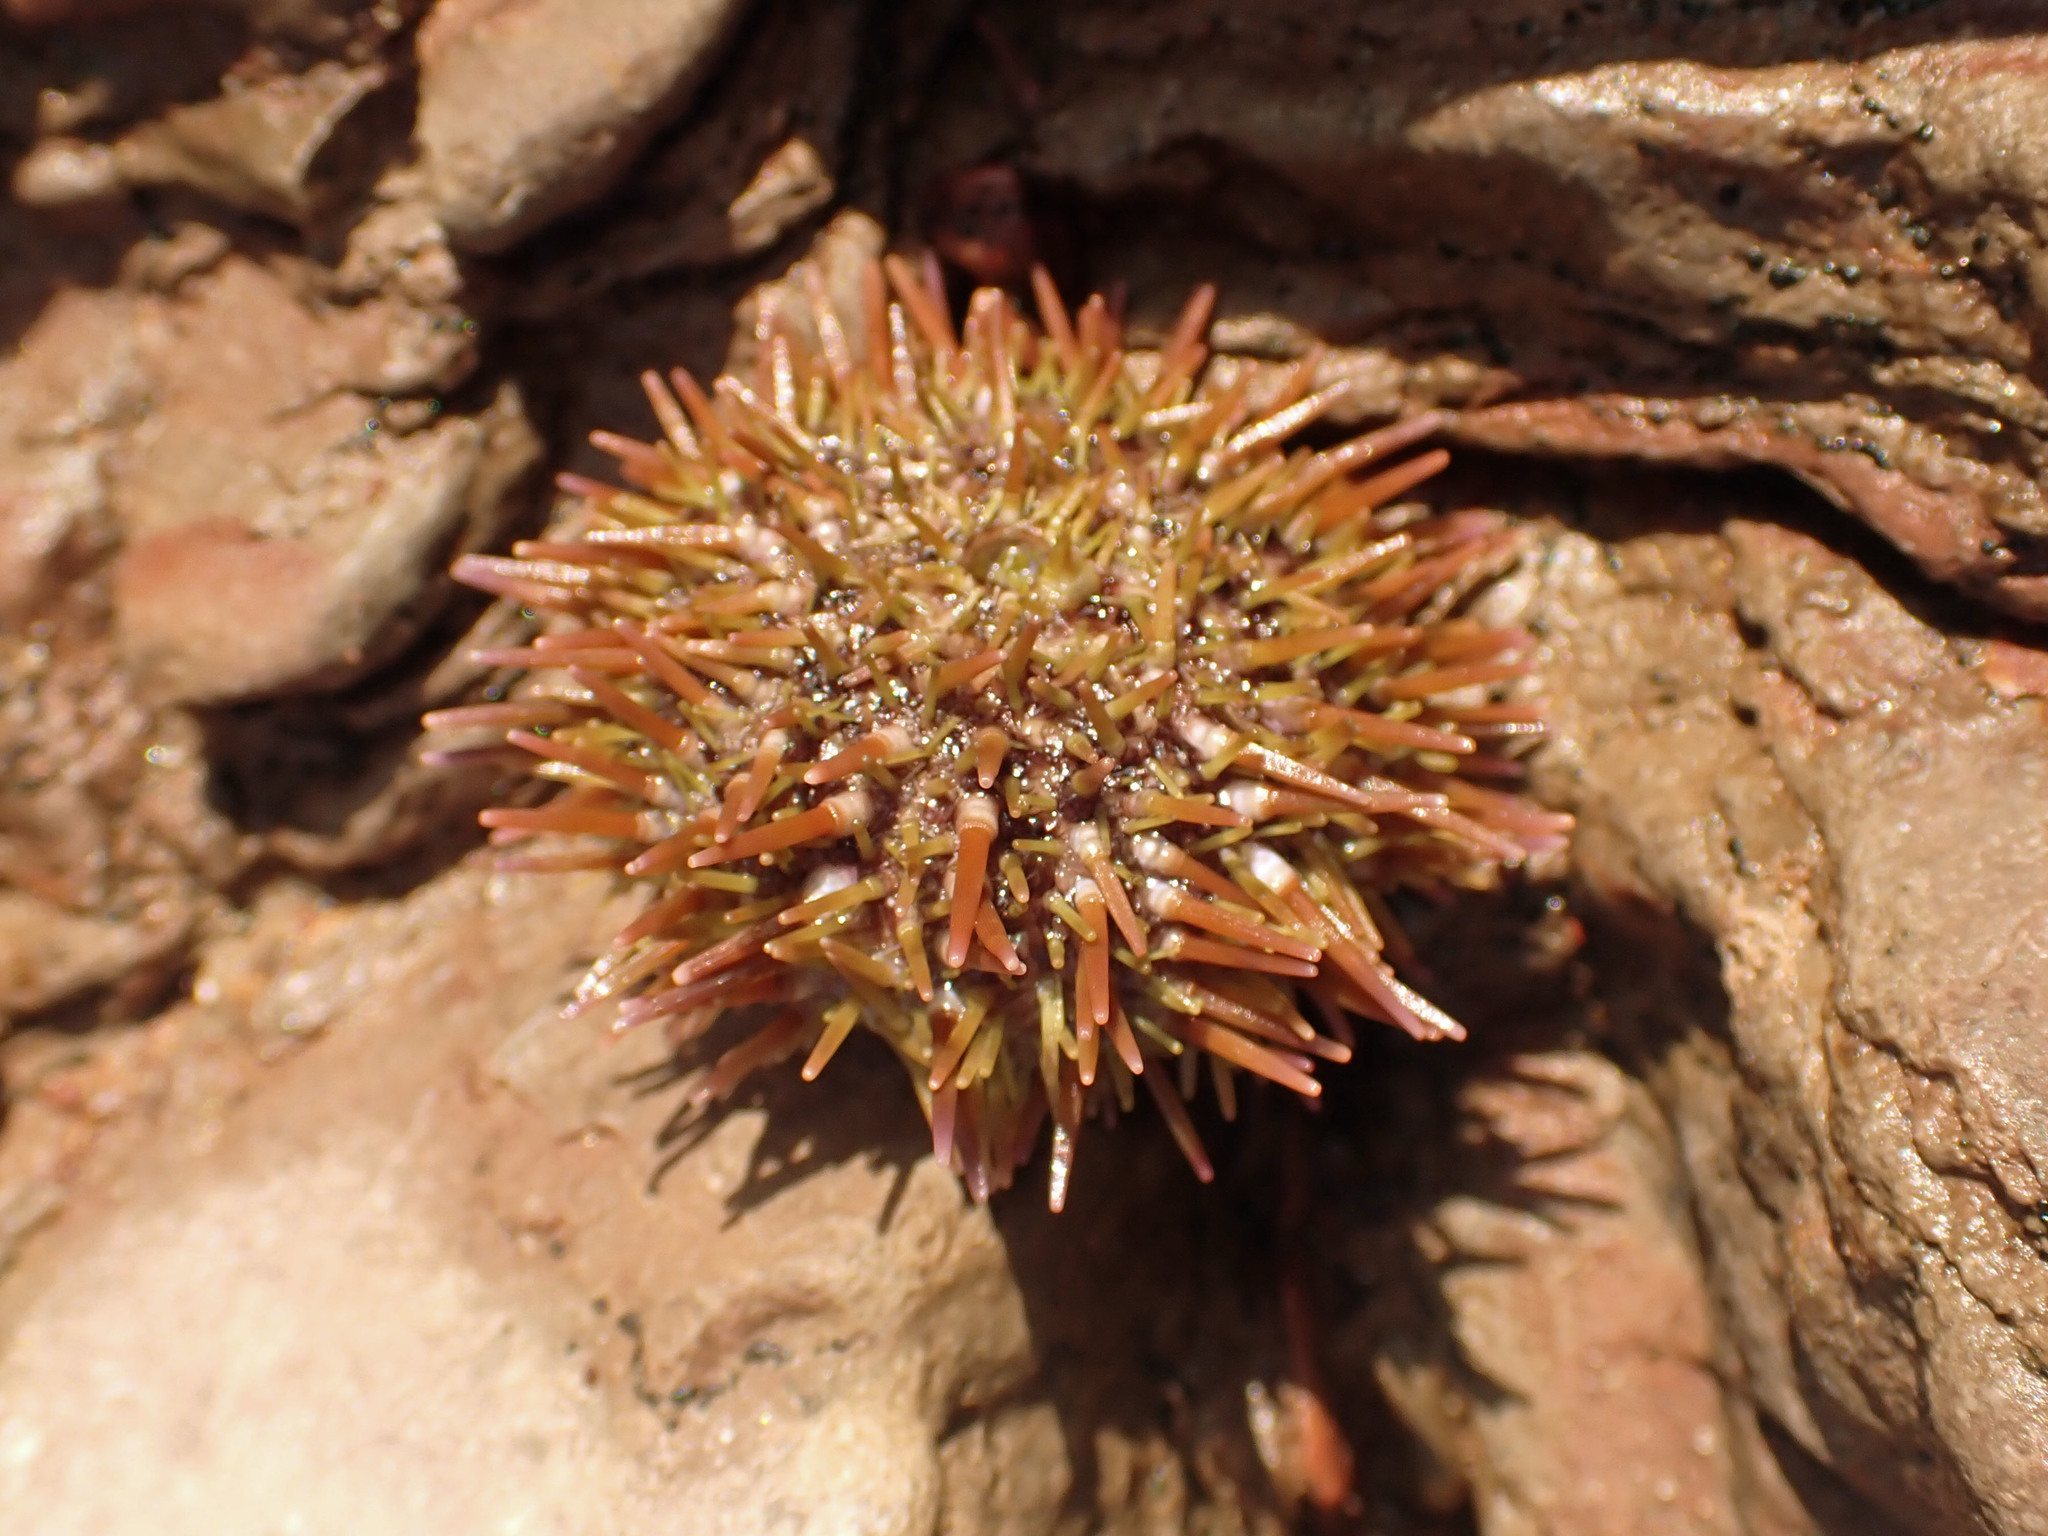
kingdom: Animalia
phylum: Echinodermata
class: Echinoidea
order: Camarodonta
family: Strongylocentrotidae
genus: Strongylocentrotus
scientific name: Strongylocentrotus droebachiensis
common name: Northern sea urchin
